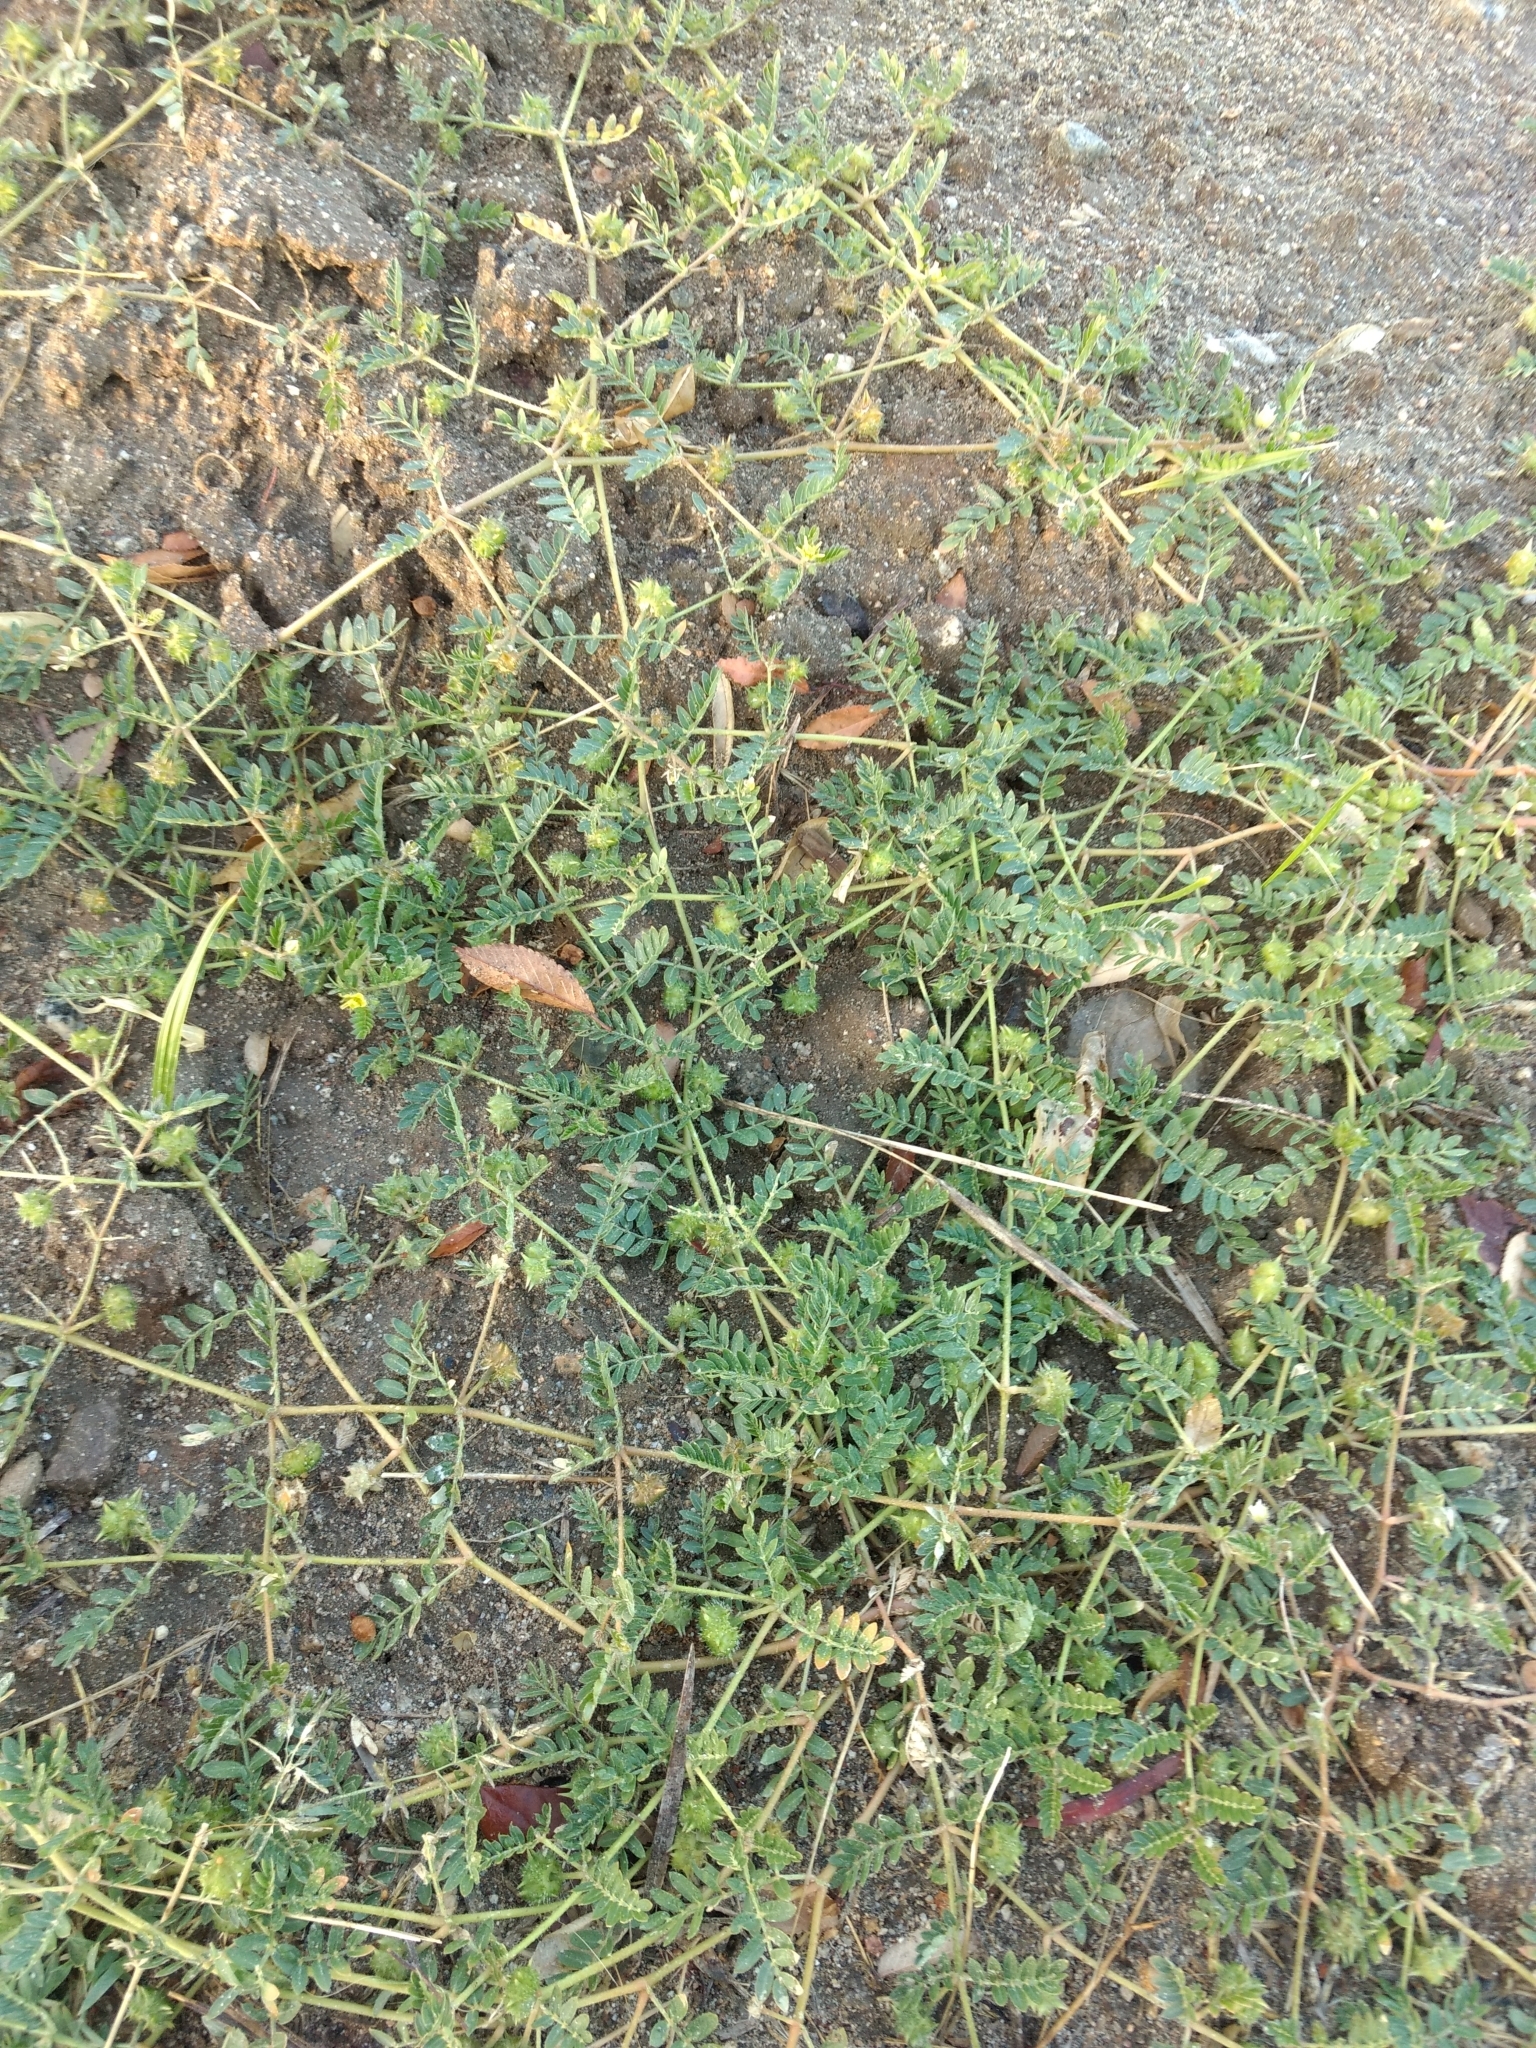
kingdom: Plantae
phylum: Tracheophyta
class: Magnoliopsida
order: Zygophyllales
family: Zygophyllaceae
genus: Tribulus
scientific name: Tribulus terrestris
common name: Puncturevine
